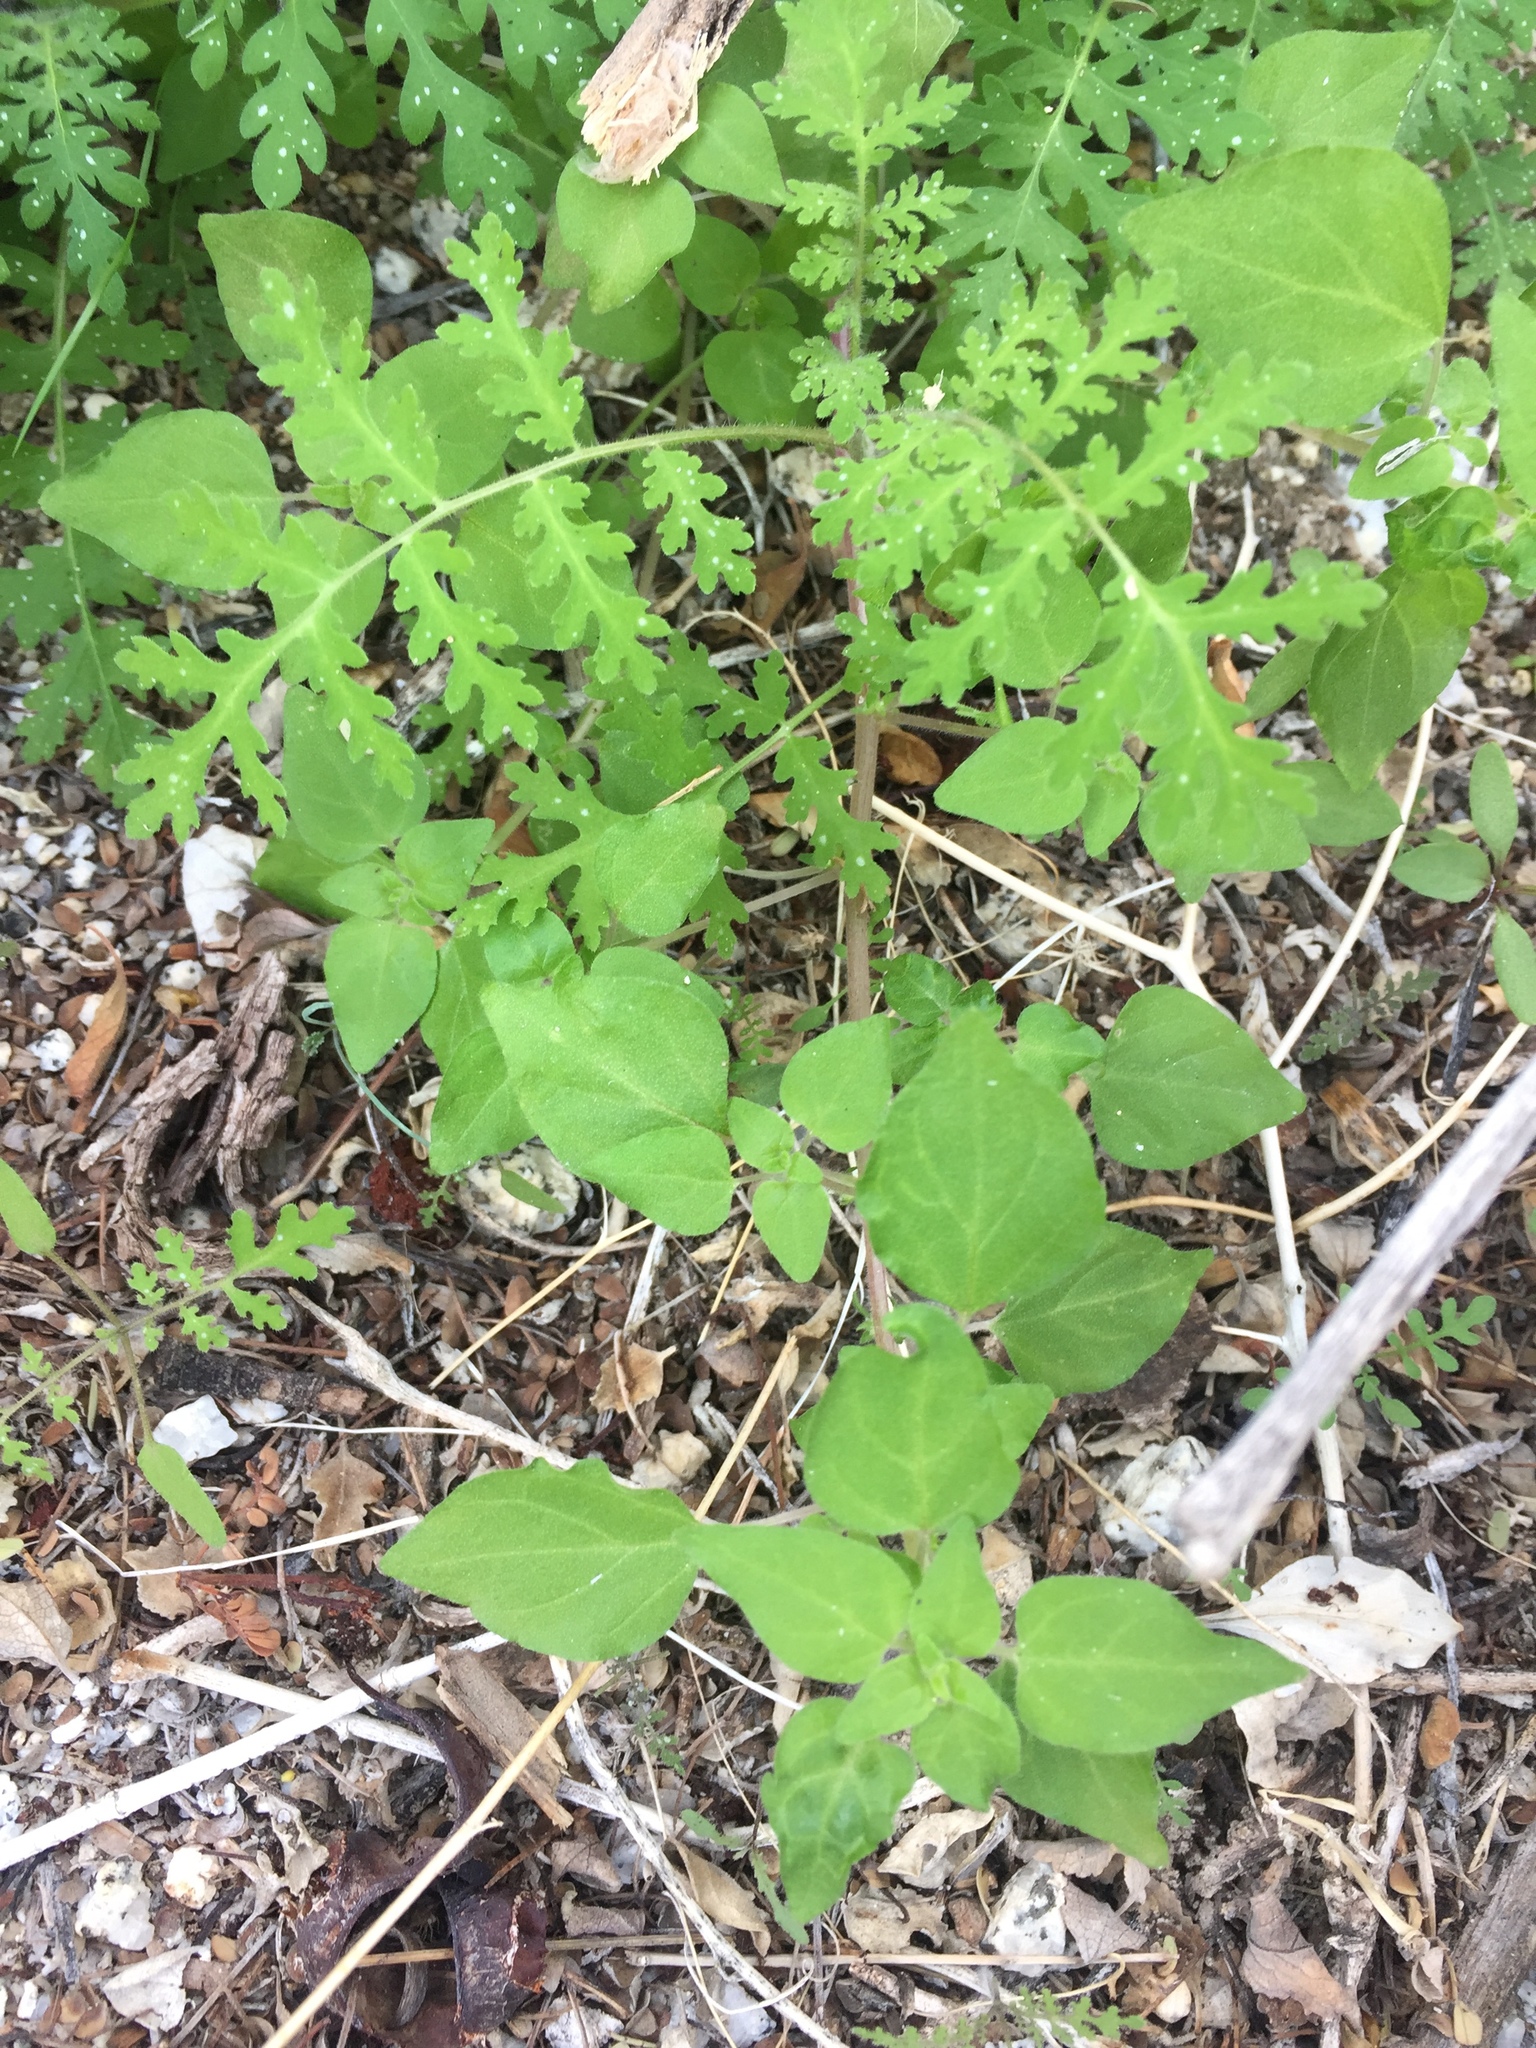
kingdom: Plantae
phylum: Tracheophyta
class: Magnoliopsida
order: Rosales
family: Urticaceae
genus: Parietaria
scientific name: Parietaria hespera
